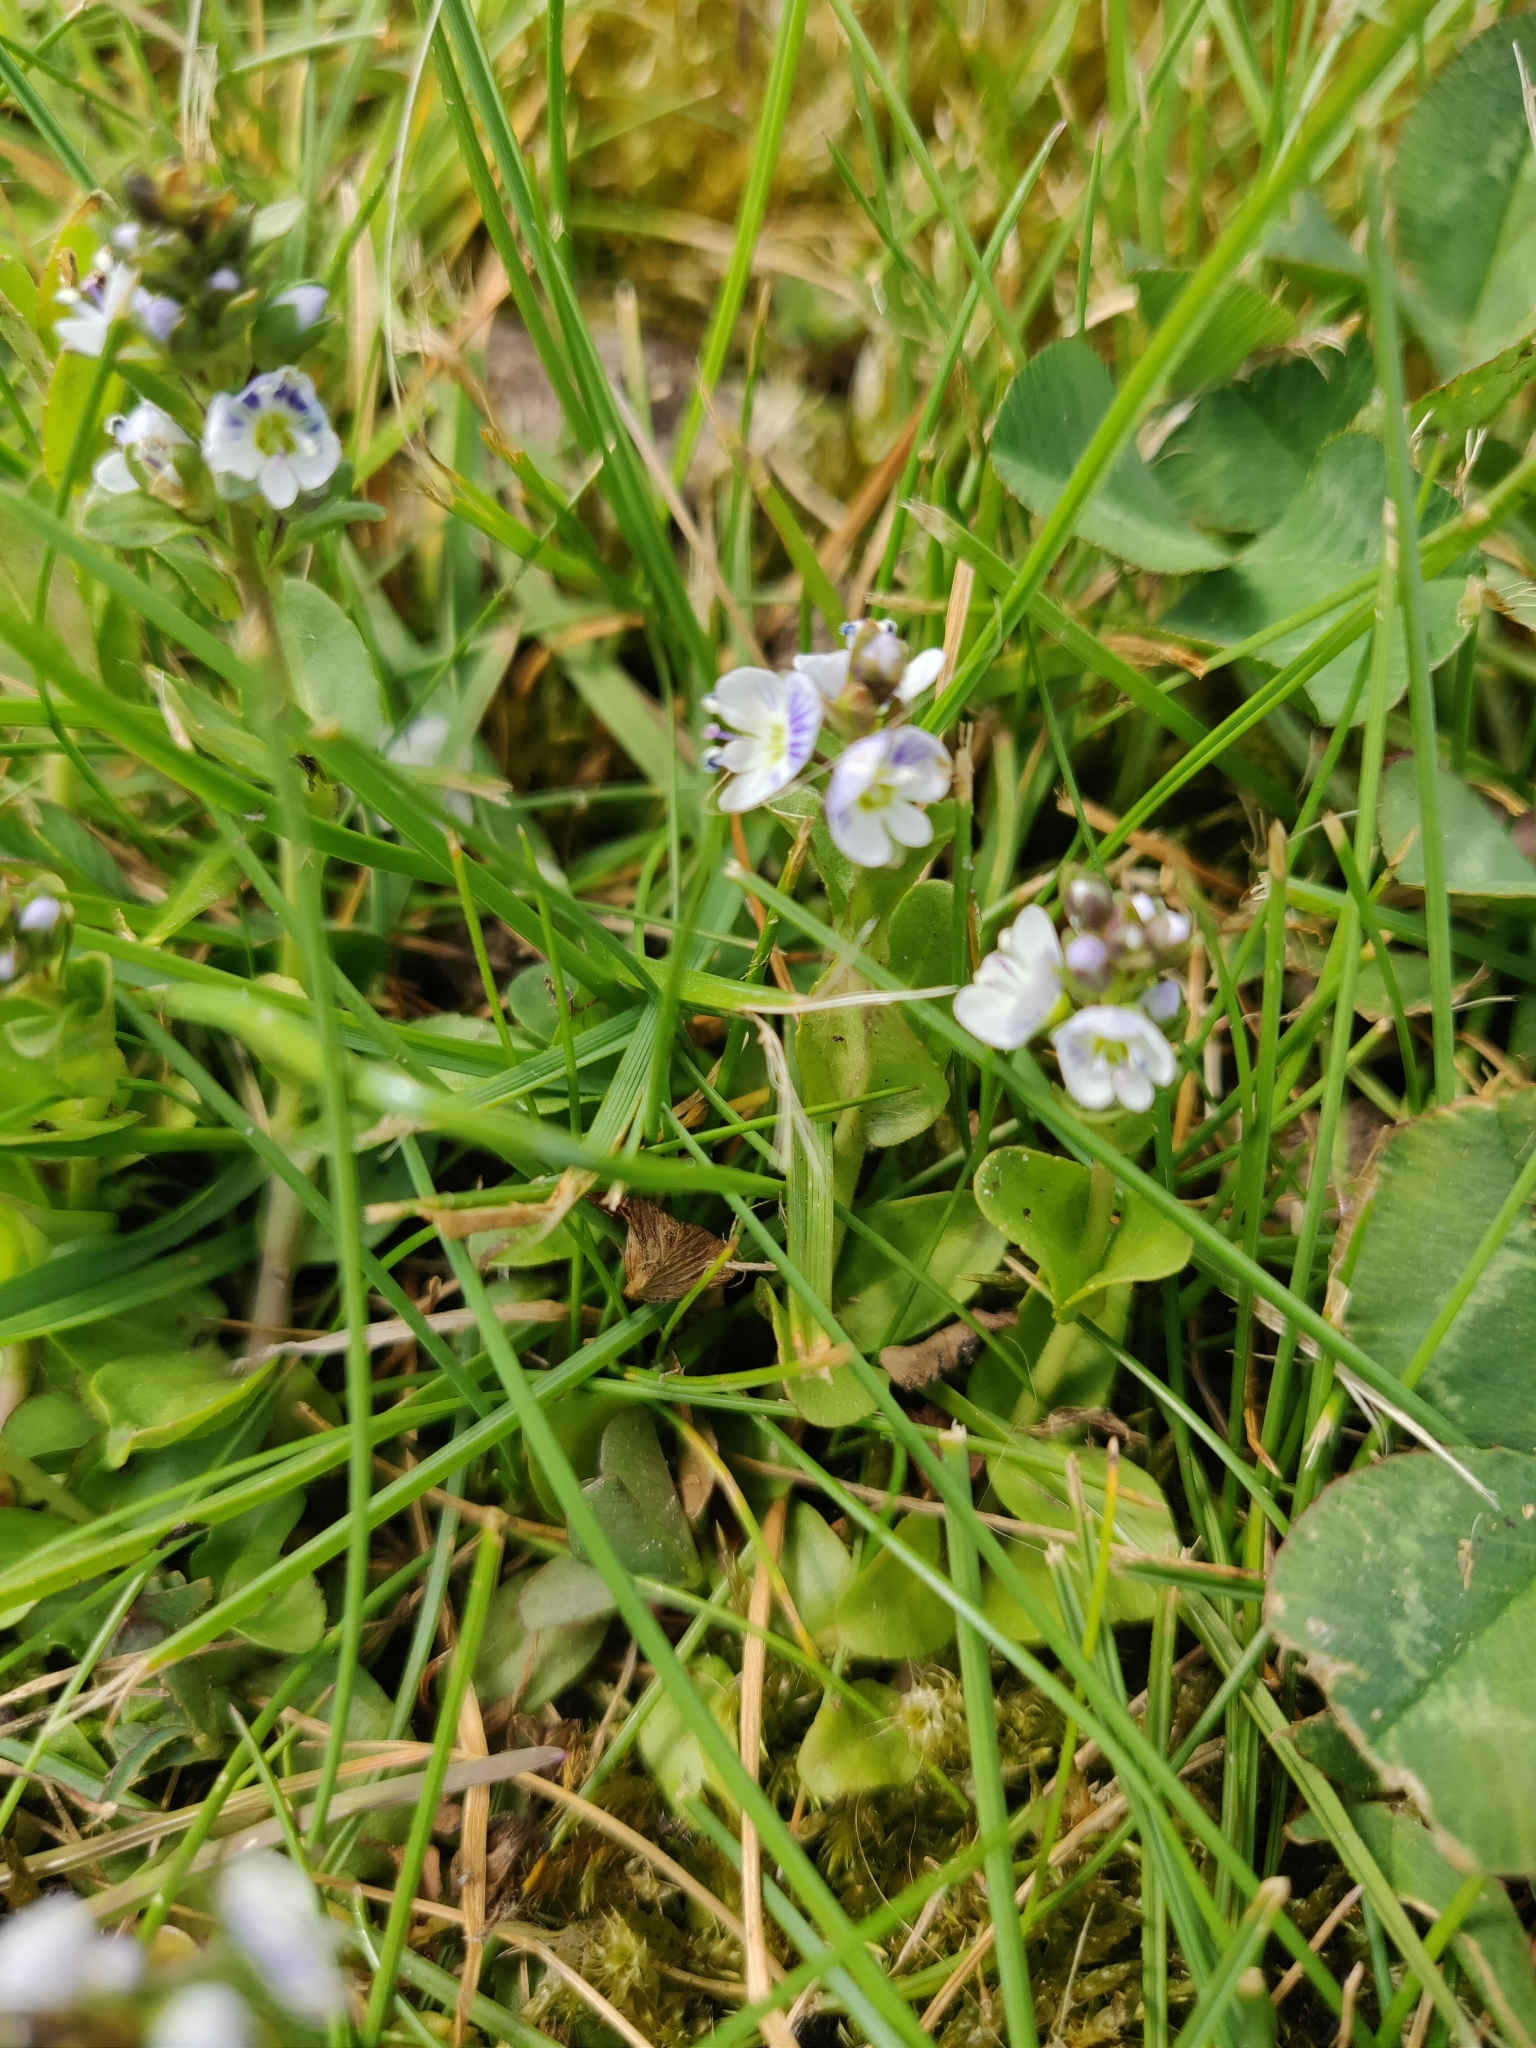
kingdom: Plantae
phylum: Tracheophyta
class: Magnoliopsida
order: Lamiales
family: Plantaginaceae
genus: Veronica
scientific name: Veronica serpyllifolia
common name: Thyme-leaved speedwell
